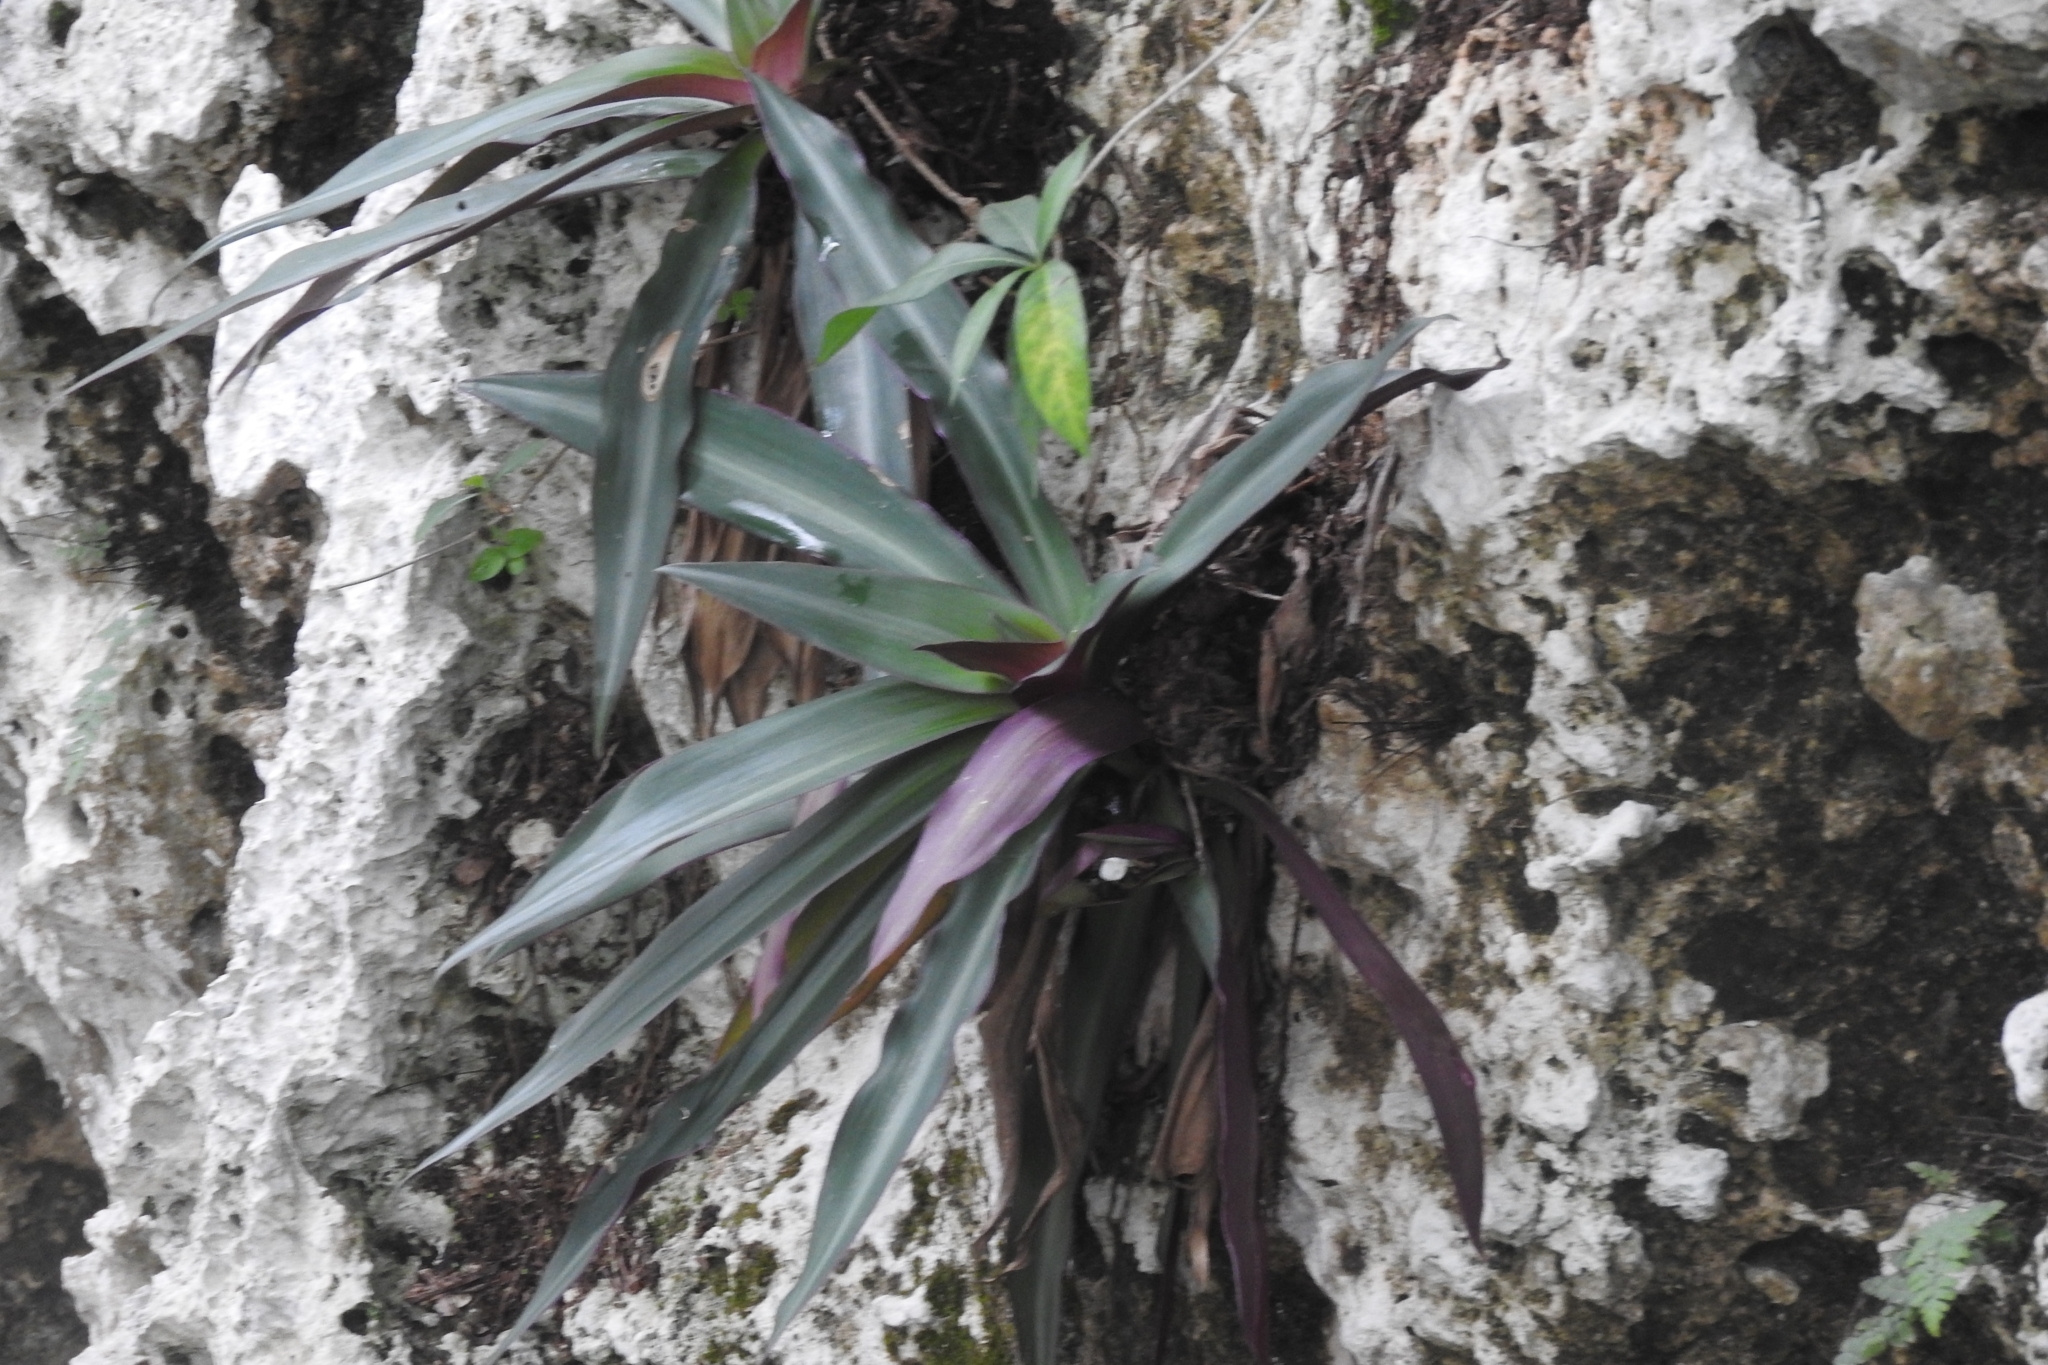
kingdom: Plantae
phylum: Tracheophyta
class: Liliopsida
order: Commelinales
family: Commelinaceae
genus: Tradescantia
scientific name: Tradescantia spathacea
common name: Boatlily
